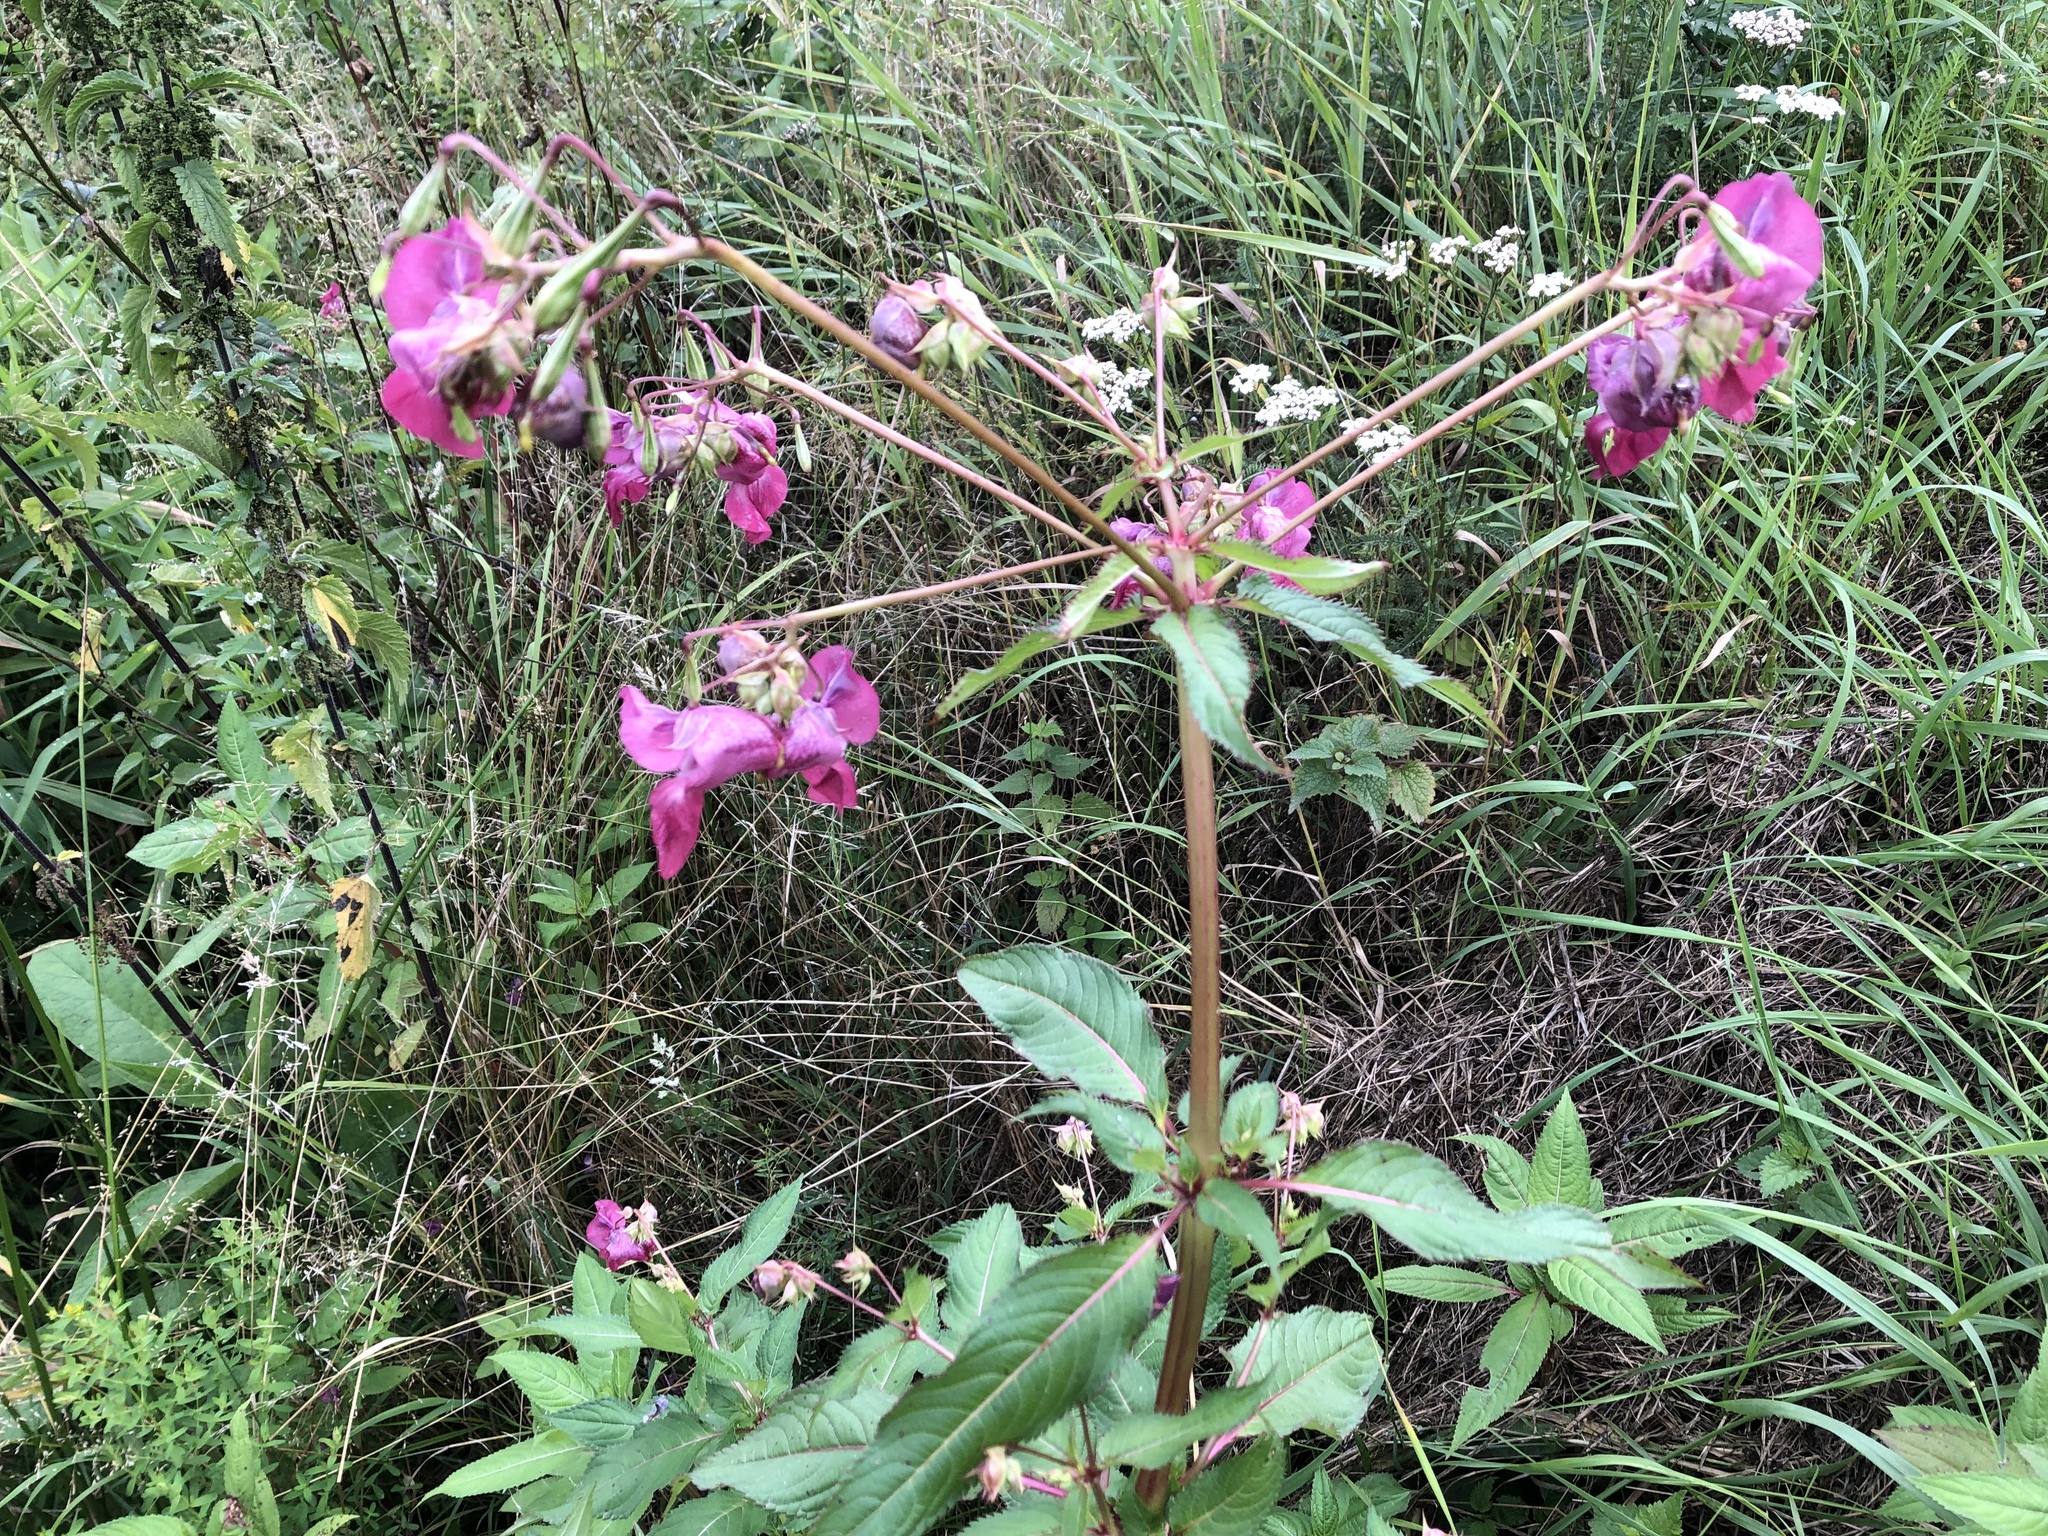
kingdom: Plantae
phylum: Tracheophyta
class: Magnoliopsida
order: Ericales
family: Balsaminaceae
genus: Impatiens
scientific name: Impatiens glandulifera
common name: Himalayan balsam
